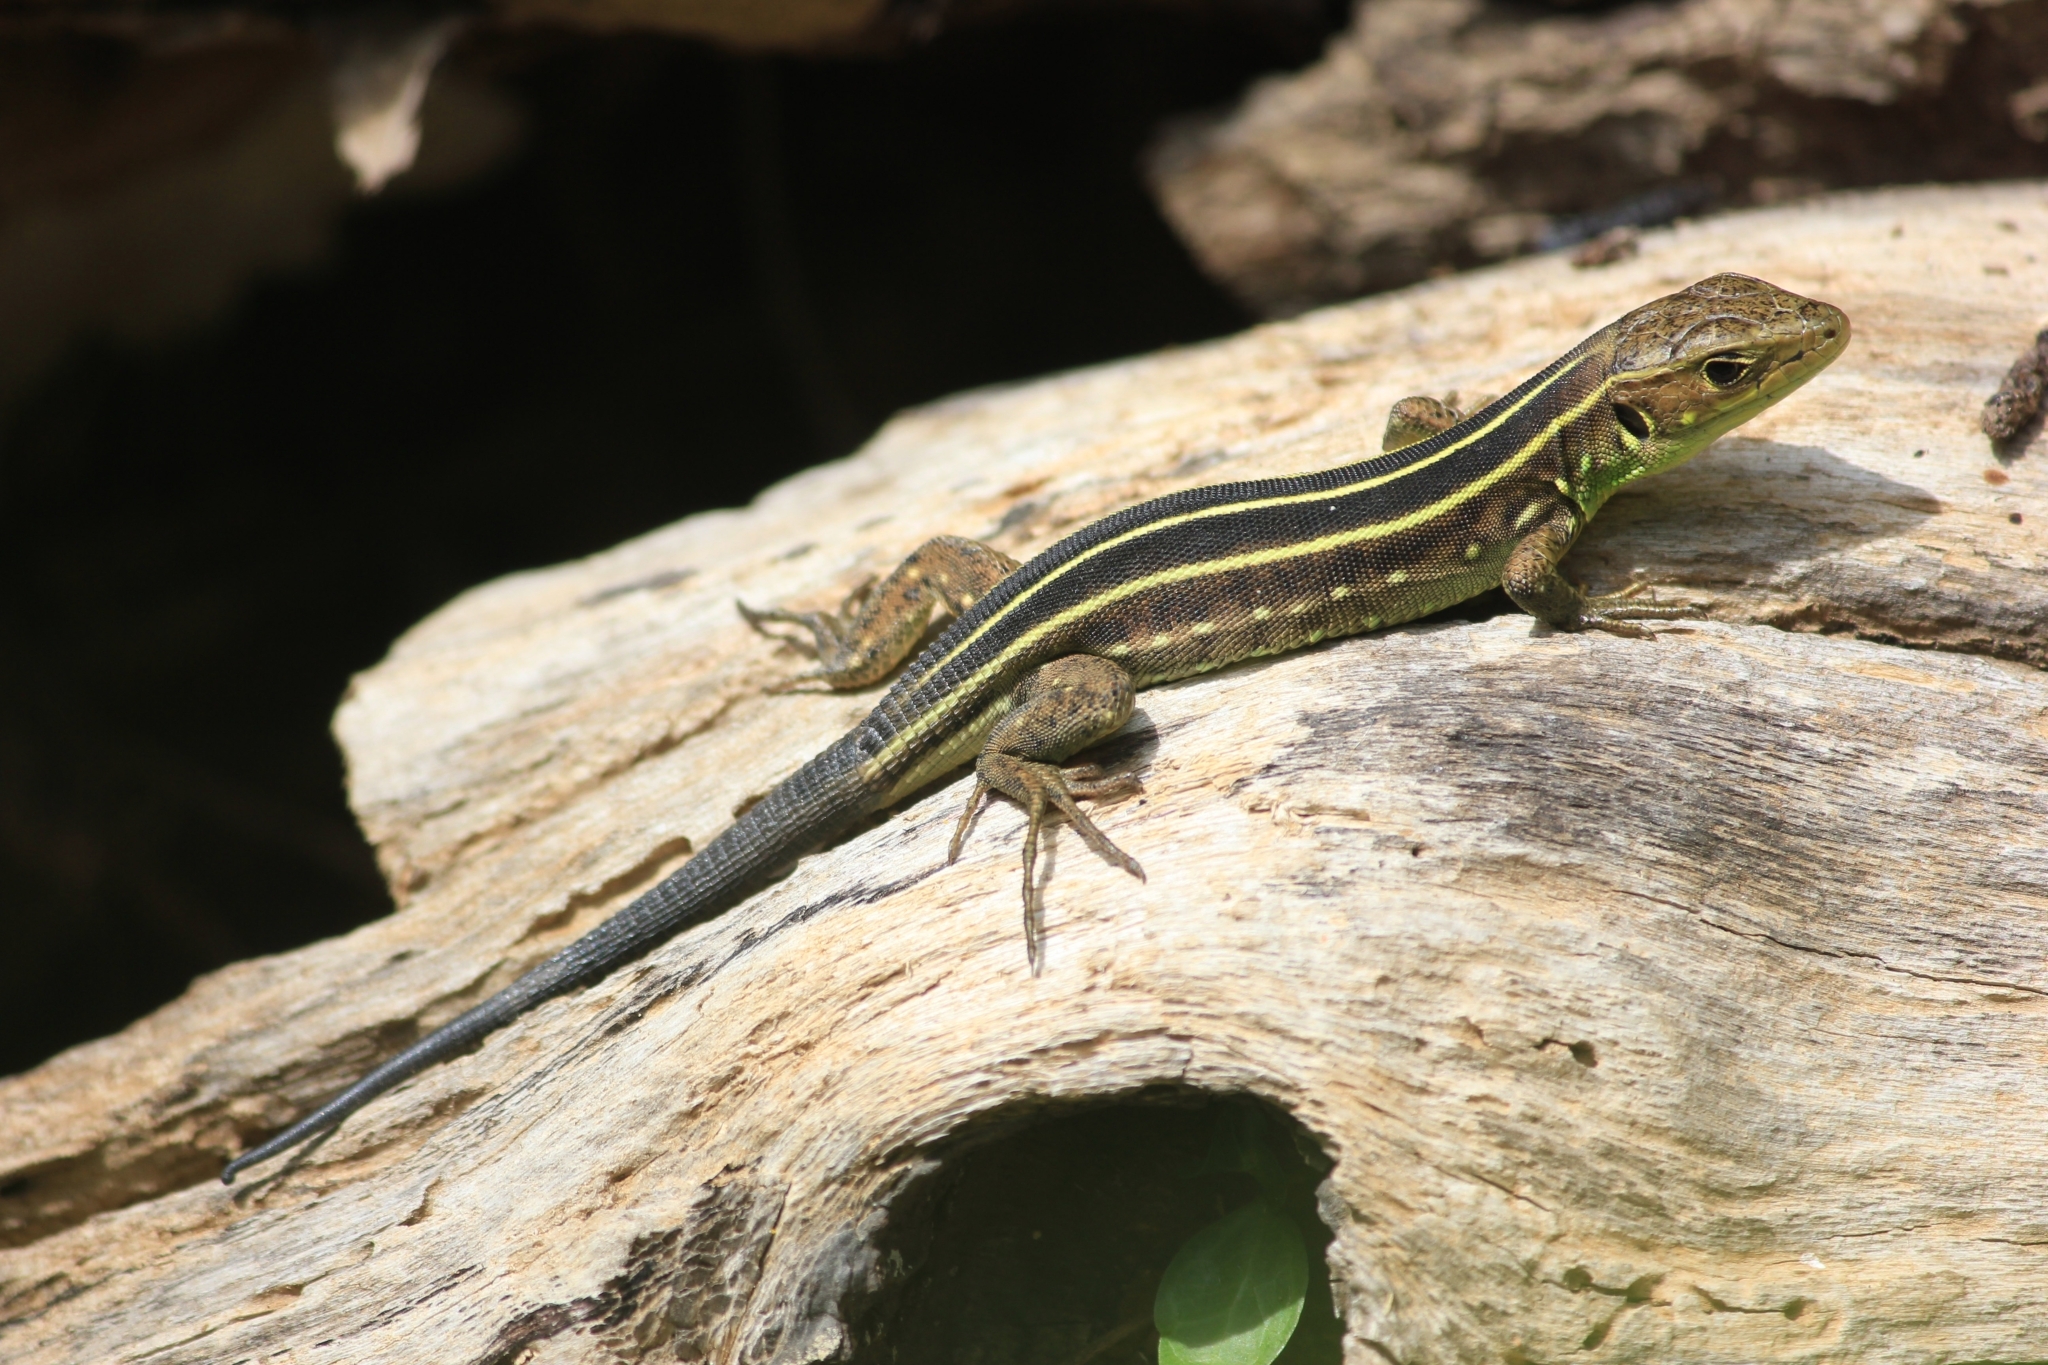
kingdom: Animalia
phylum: Chordata
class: Squamata
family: Lacertidae
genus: Lacerta
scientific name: Lacerta trilineata
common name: Balkan green lizard
